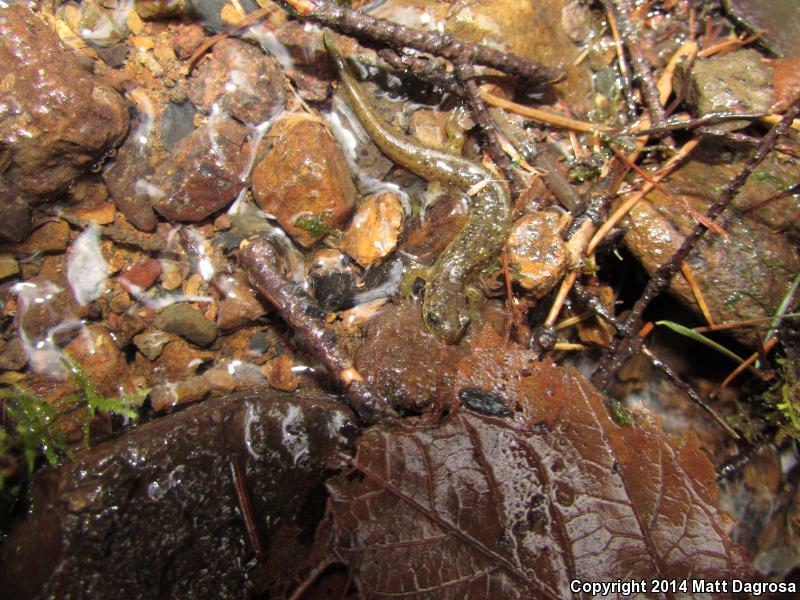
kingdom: Animalia
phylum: Chordata
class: Amphibia
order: Caudata
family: Rhyacotritonidae
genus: Rhyacotriton
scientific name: Rhyacotriton cascadae
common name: Cascade torrent salamander
